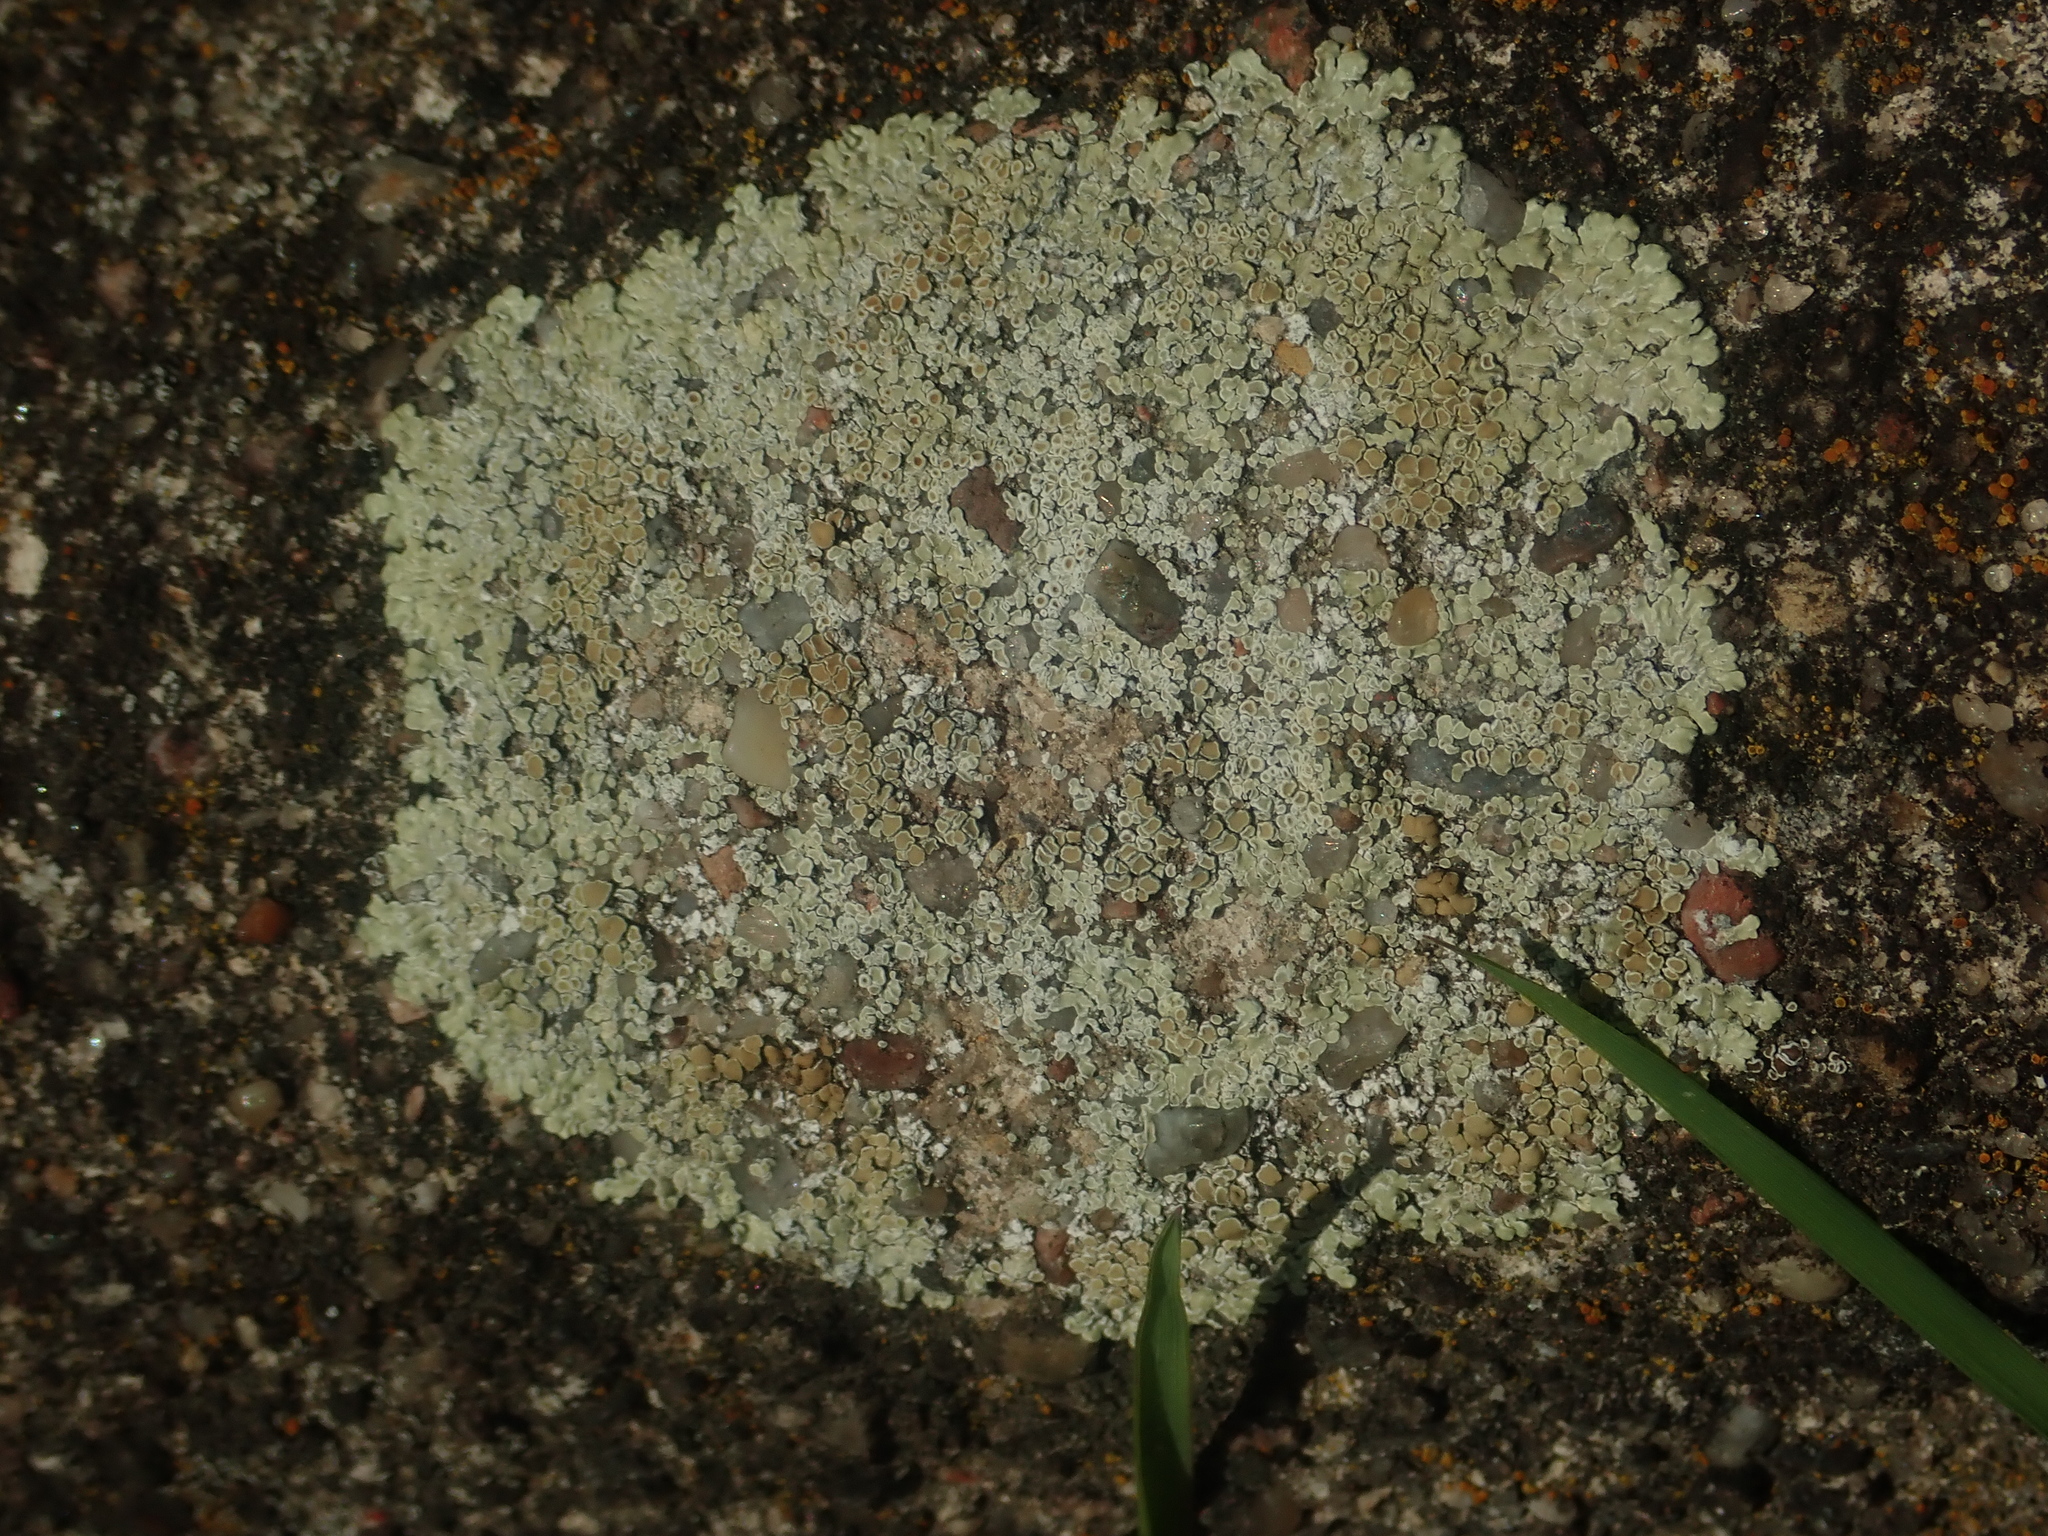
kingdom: Fungi
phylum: Ascomycota
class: Lecanoromycetes
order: Lecanorales
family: Lecanoraceae
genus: Protoparmeliopsis
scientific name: Protoparmeliopsis muralis
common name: Stonewall rim lichen
